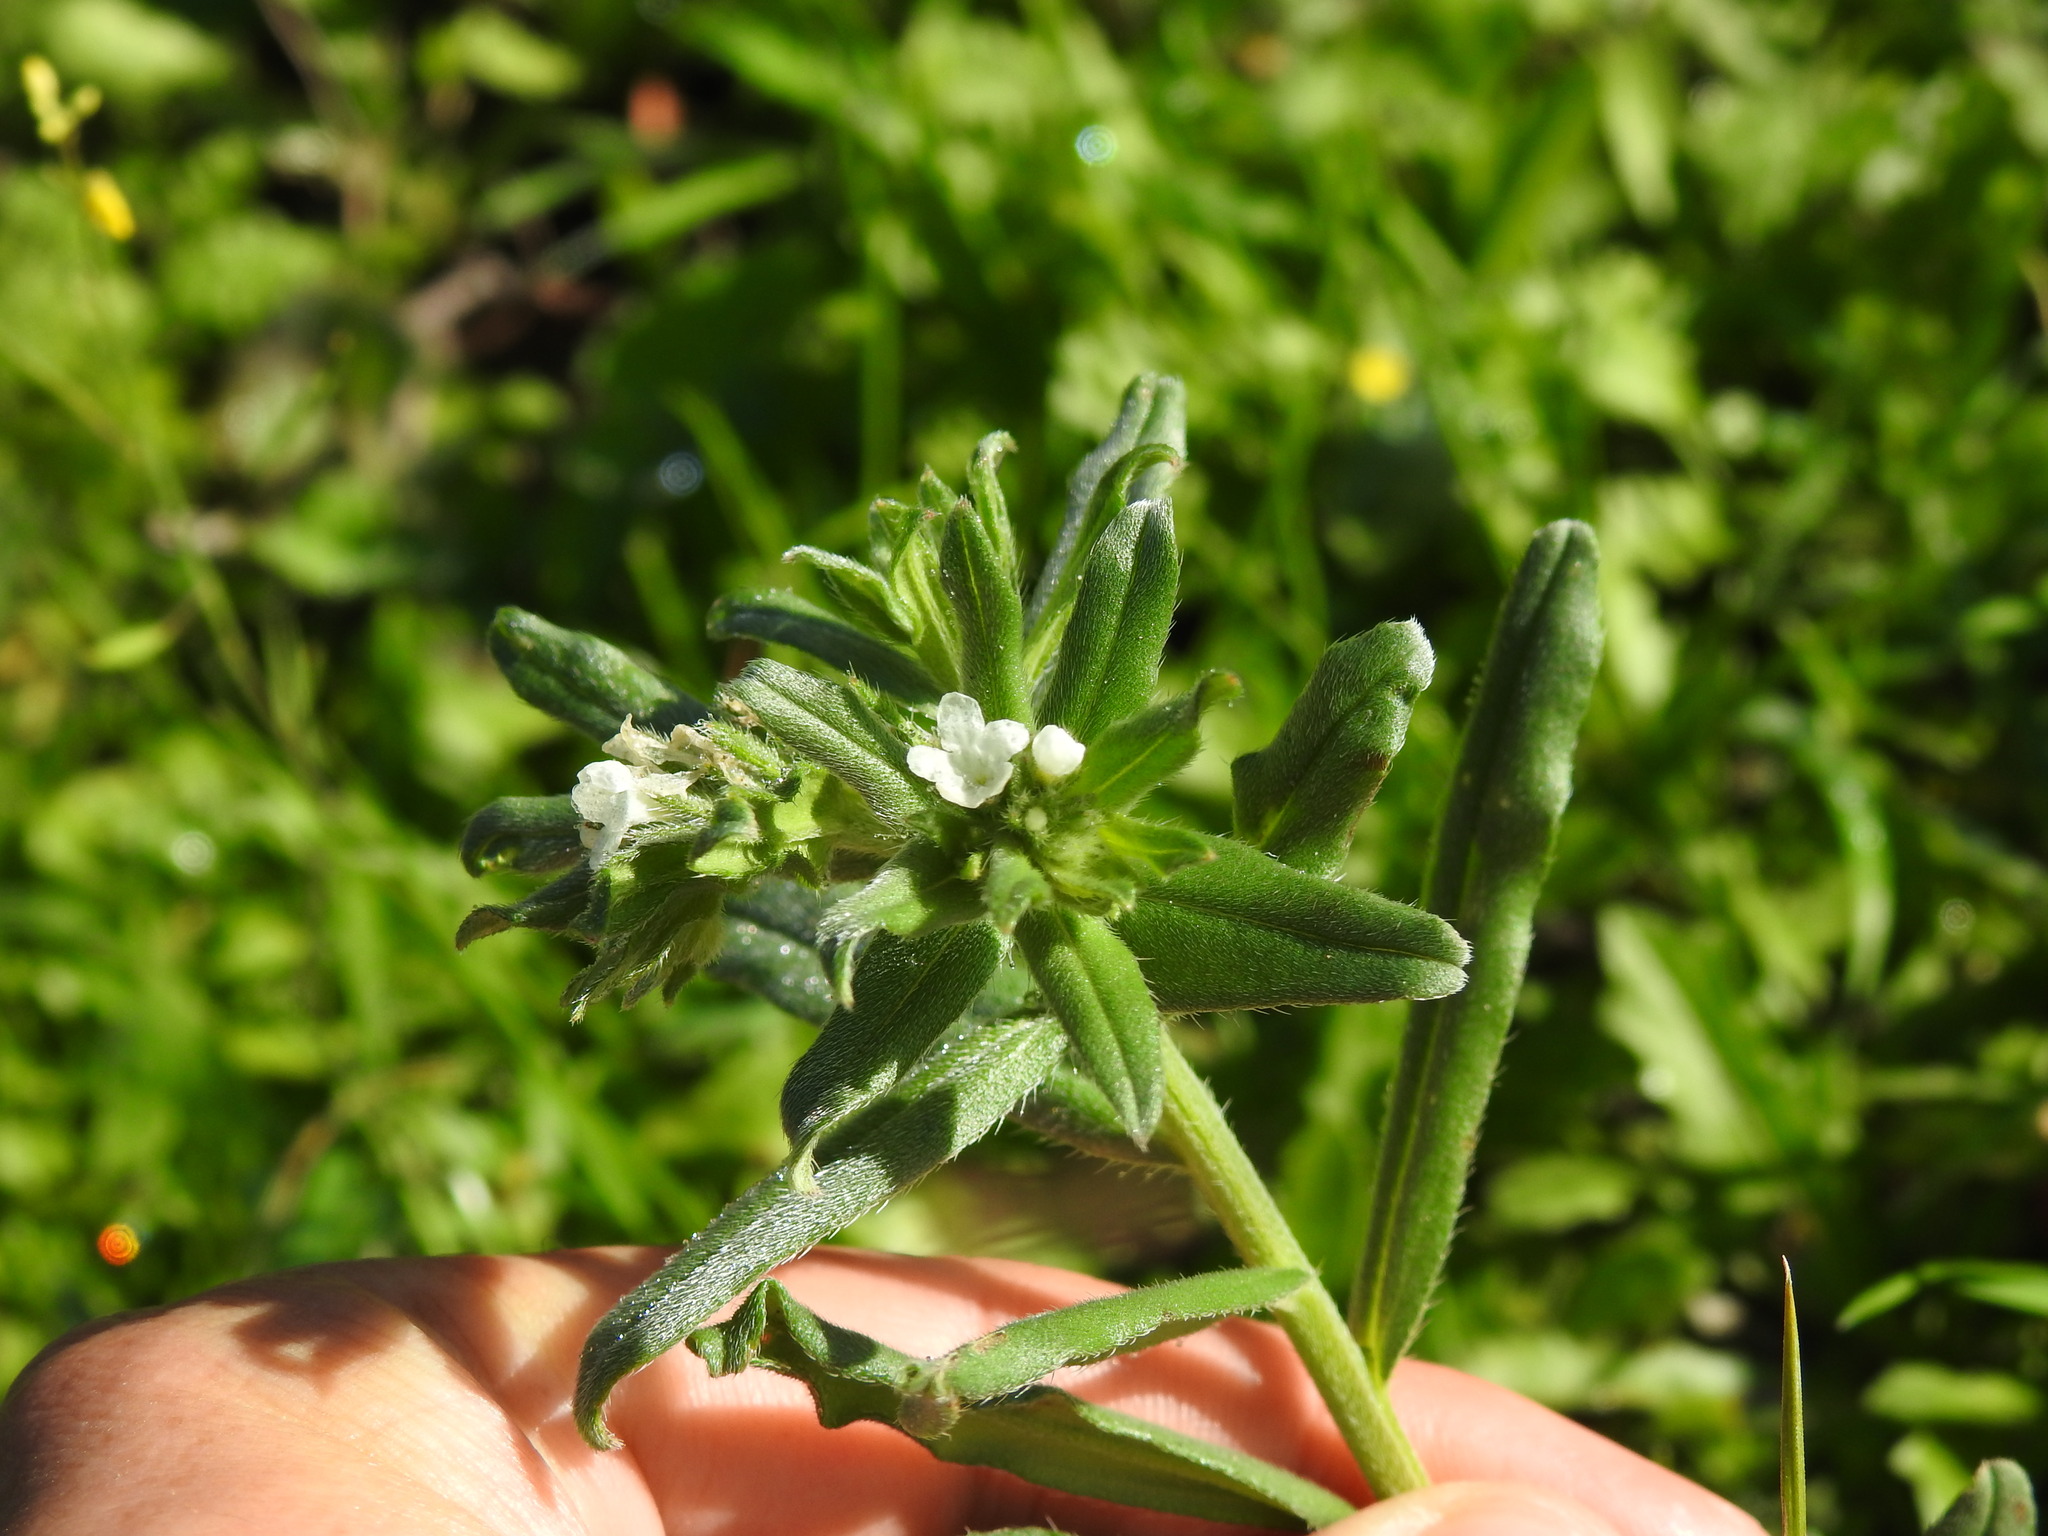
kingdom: Plantae
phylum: Tracheophyta
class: Magnoliopsida
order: Boraginales
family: Boraginaceae
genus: Buglossoides
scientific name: Buglossoides arvensis
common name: Corn gromwell
